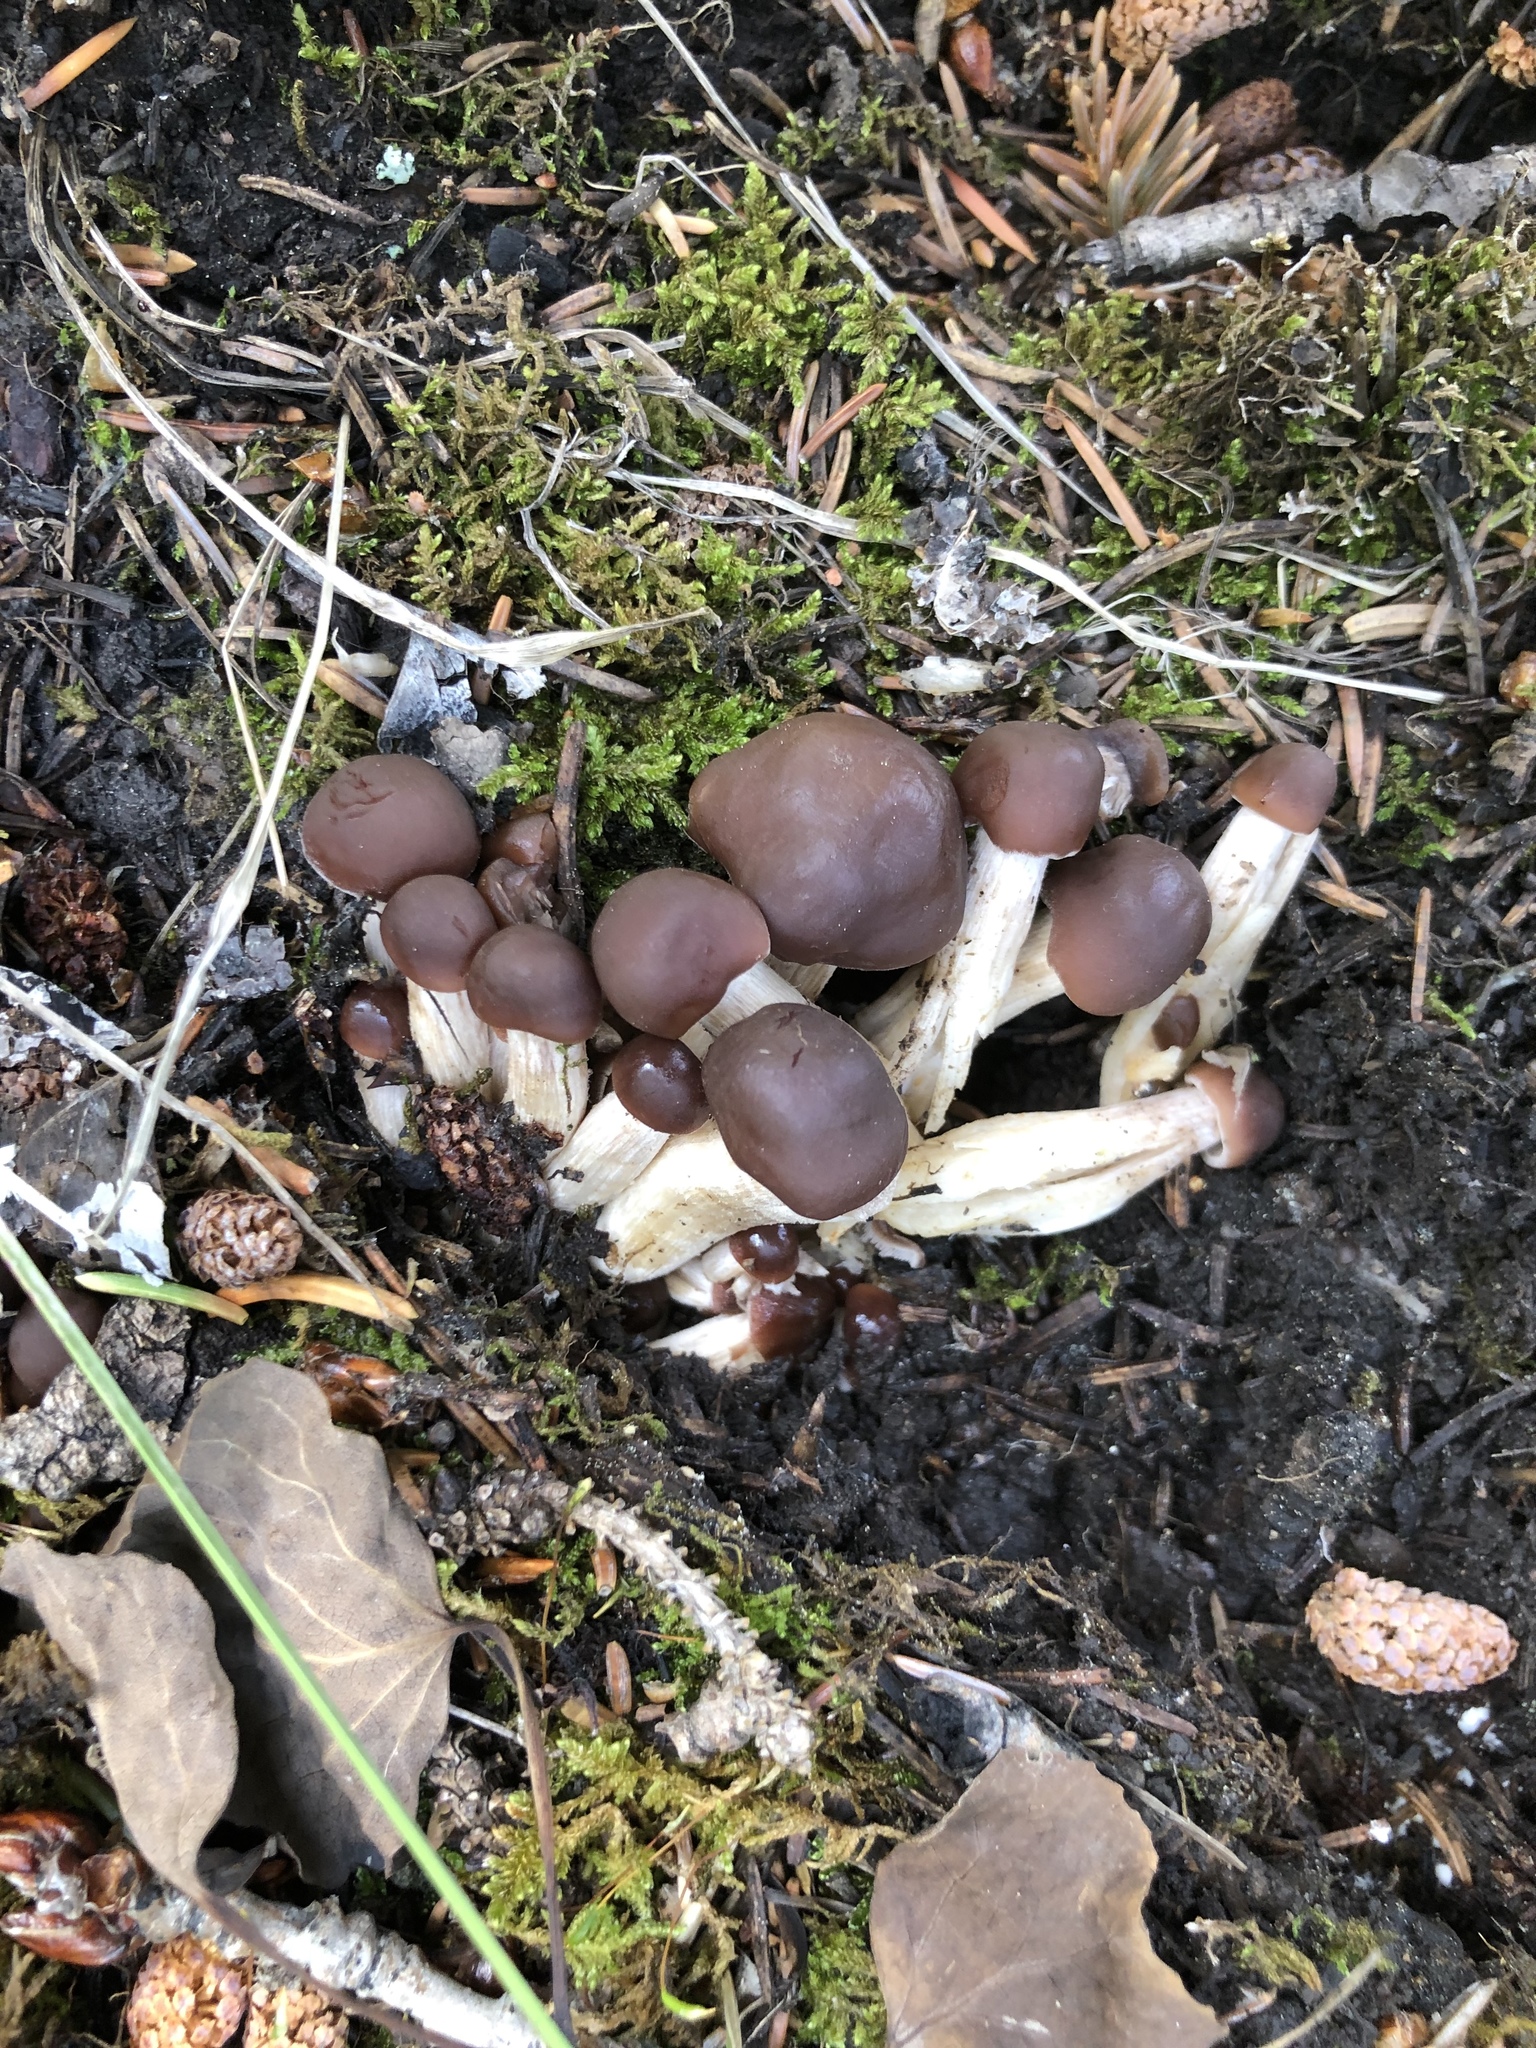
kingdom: Fungi
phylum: Basidiomycota
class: Agaricomycetes
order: Agaricales
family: Psathyrellaceae
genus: Homophron
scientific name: Homophron spadiceum
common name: Chestnut brittlestem
